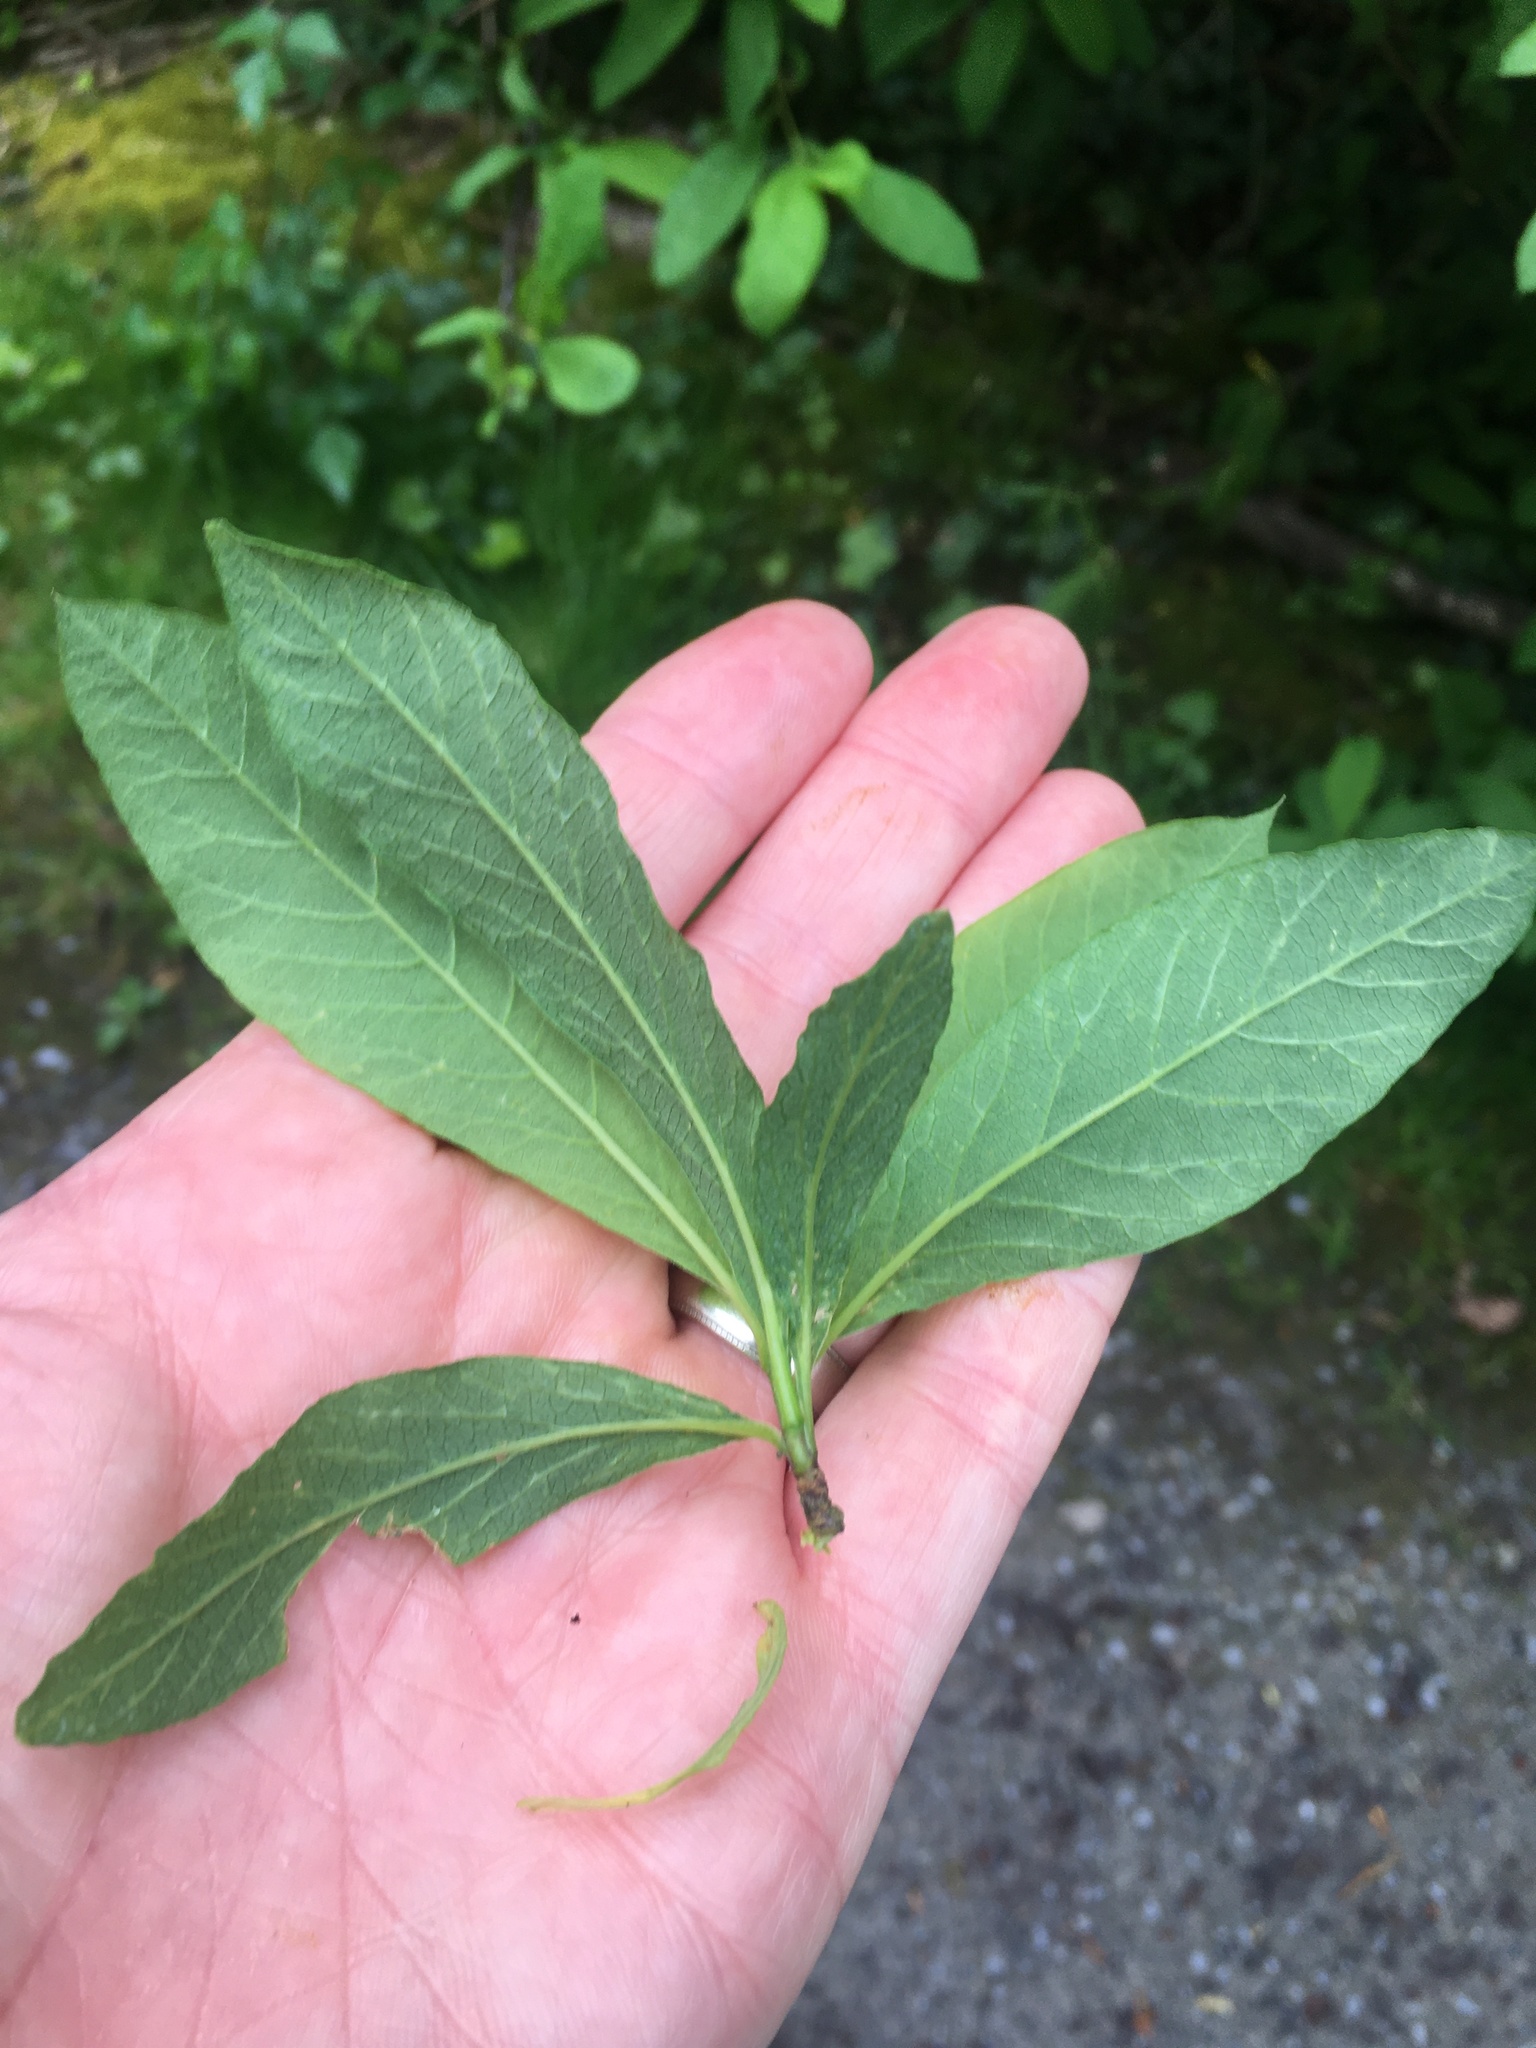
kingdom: Plantae
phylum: Tracheophyta
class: Magnoliopsida
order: Rosales
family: Rosaceae
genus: Oemleria
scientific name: Oemleria cerasiformis
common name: Osoberry
